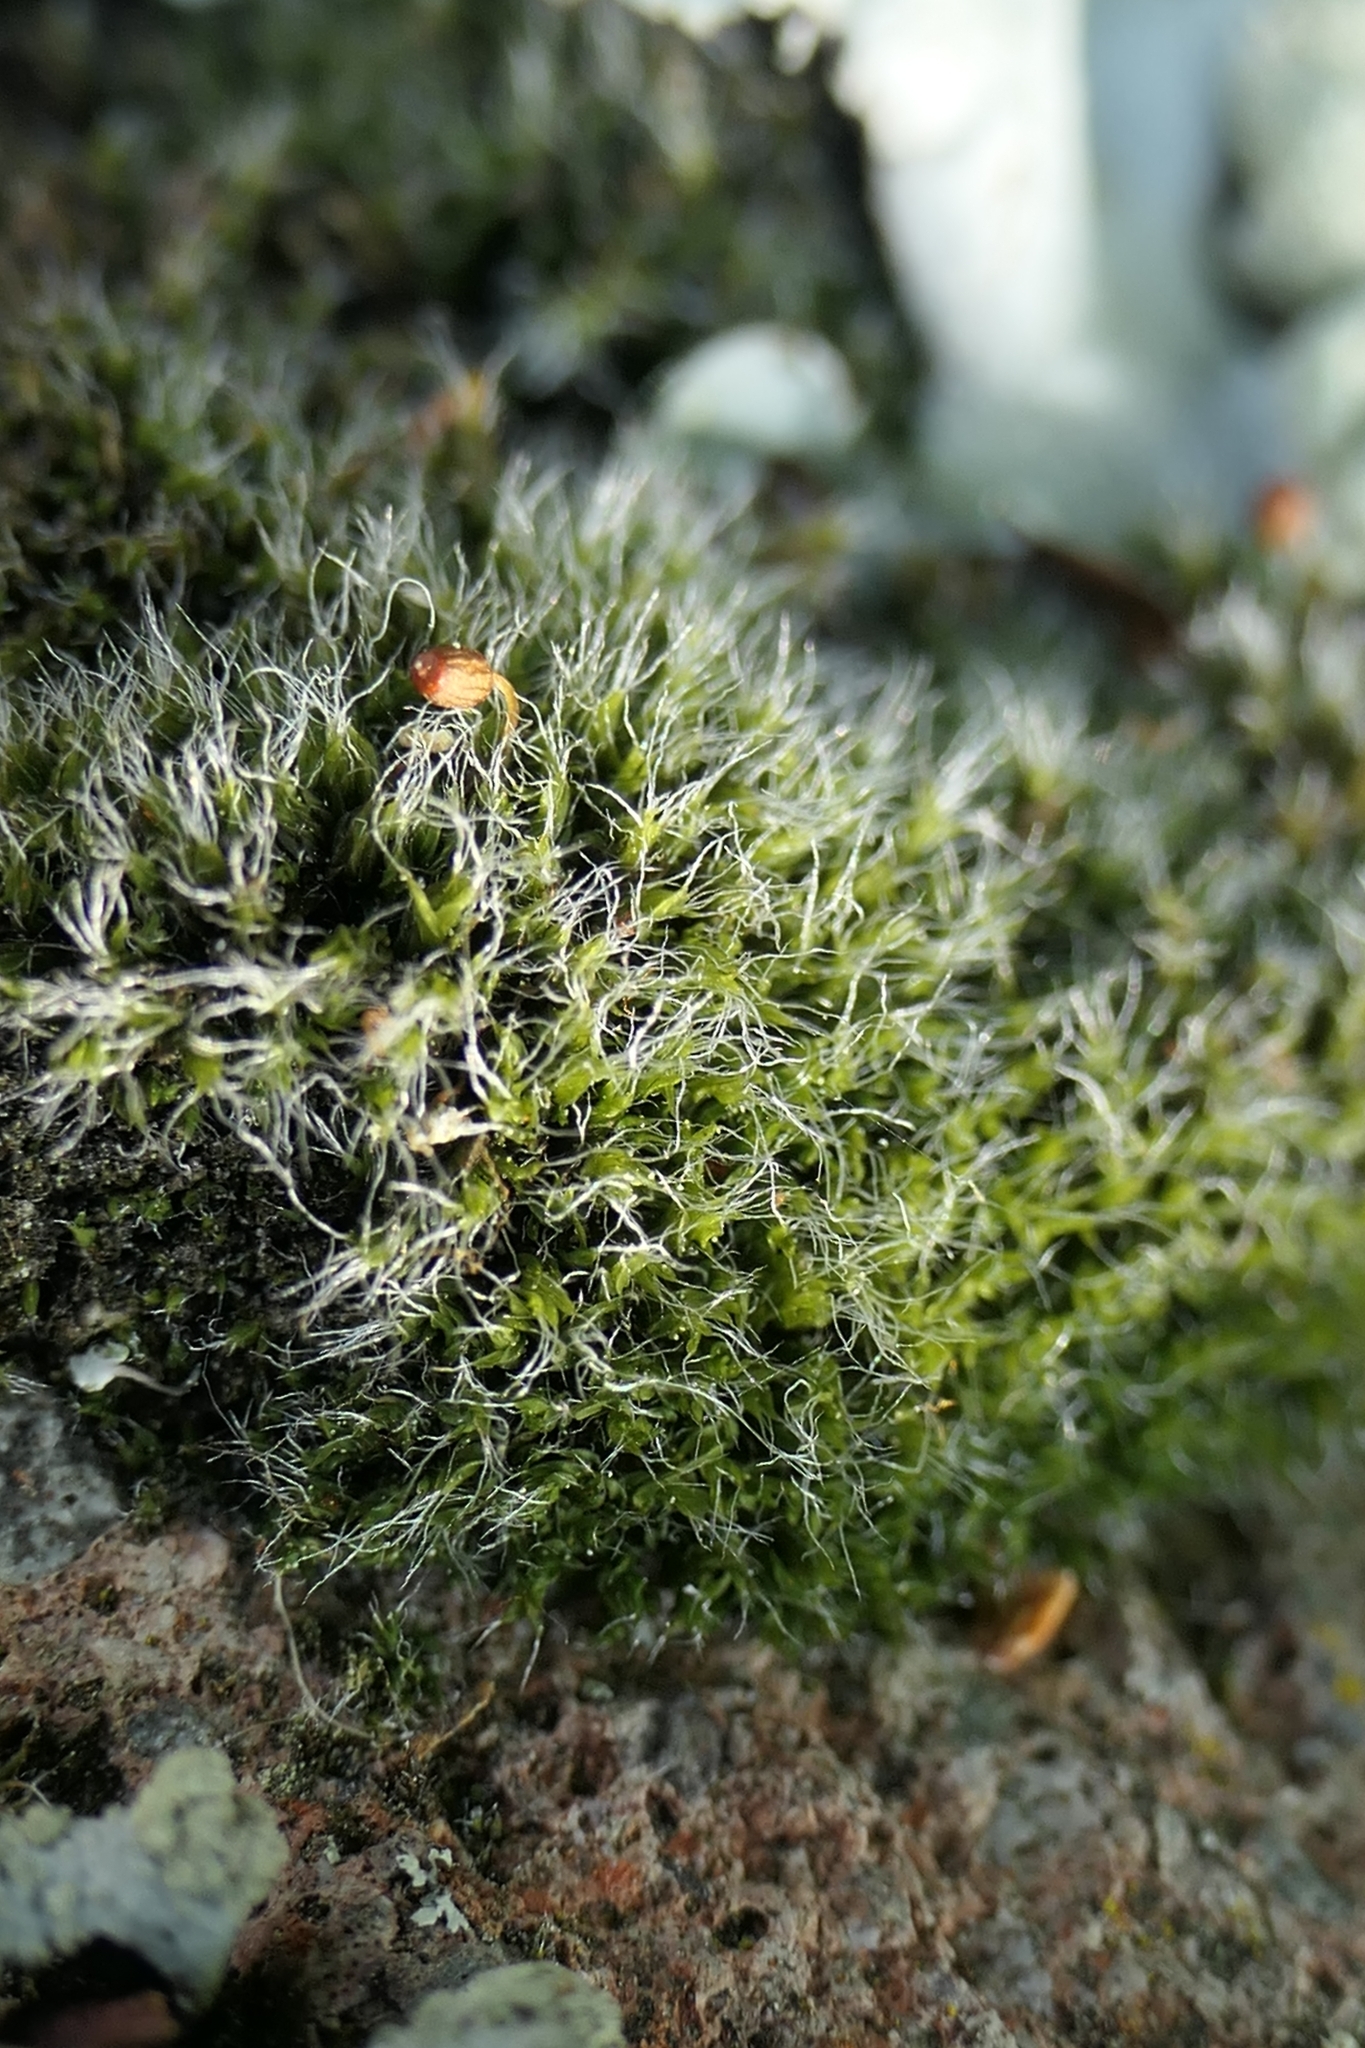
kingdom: Plantae
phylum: Bryophyta
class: Bryopsida
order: Grimmiales
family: Grimmiaceae
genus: Grimmia
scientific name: Grimmia pulvinata
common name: Grey-cushioned grimmia
